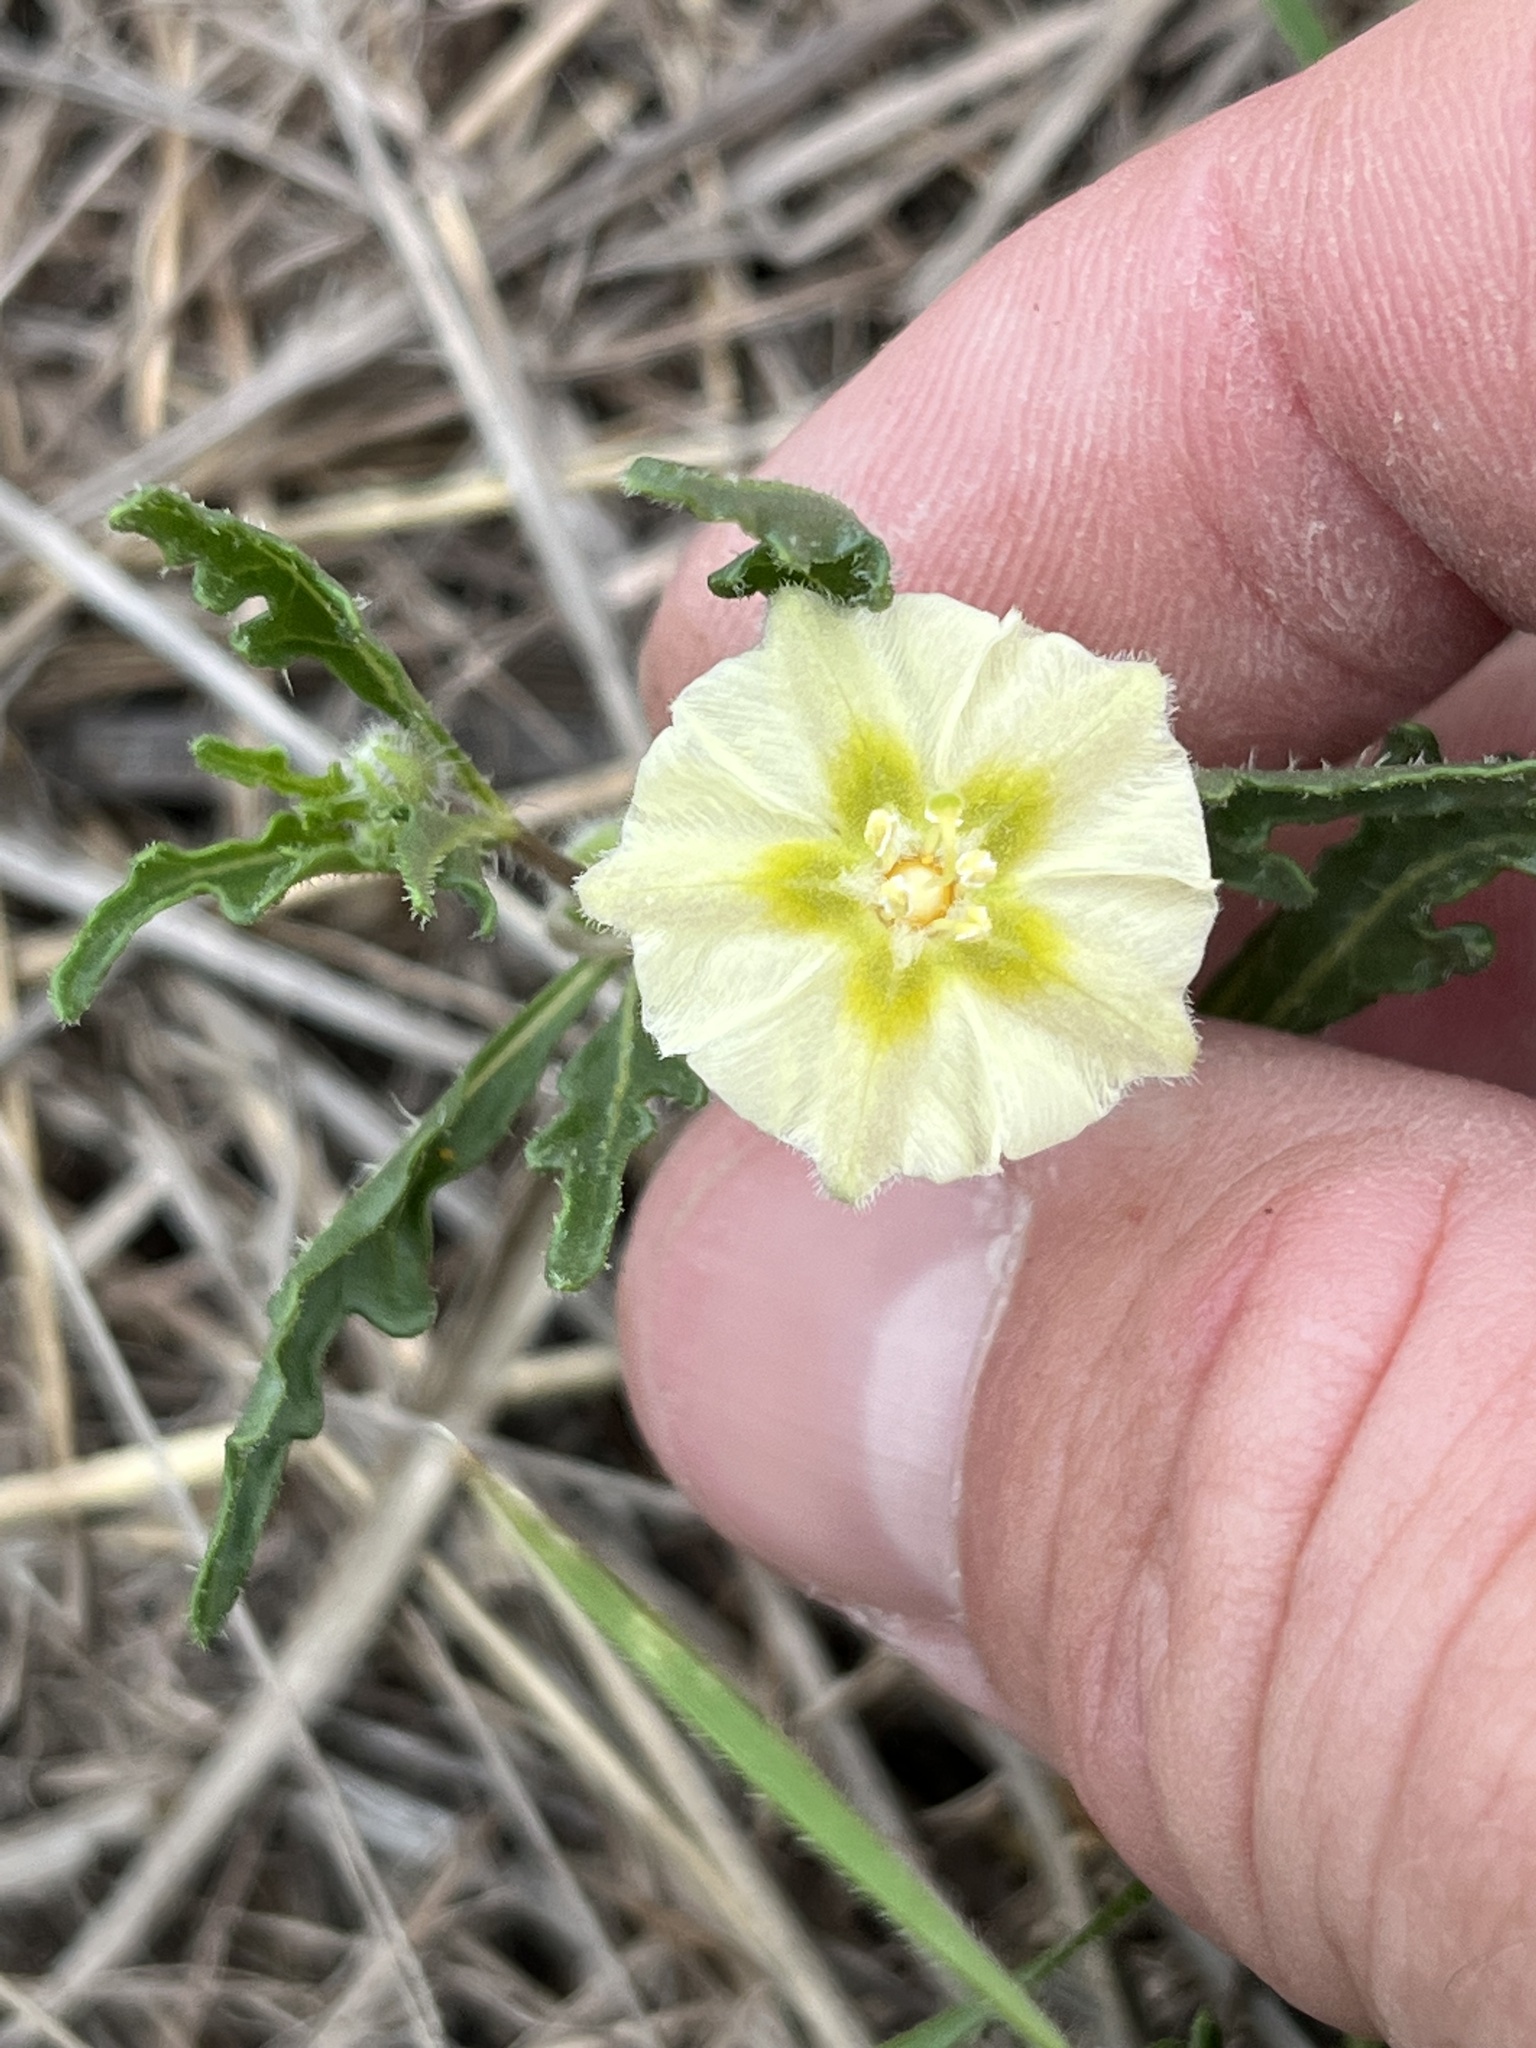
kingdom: Plantae
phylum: Tracheophyta
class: Magnoliopsida
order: Solanales
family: Solanaceae
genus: Chamaesaracha
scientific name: Chamaesaracha edwardsiana
